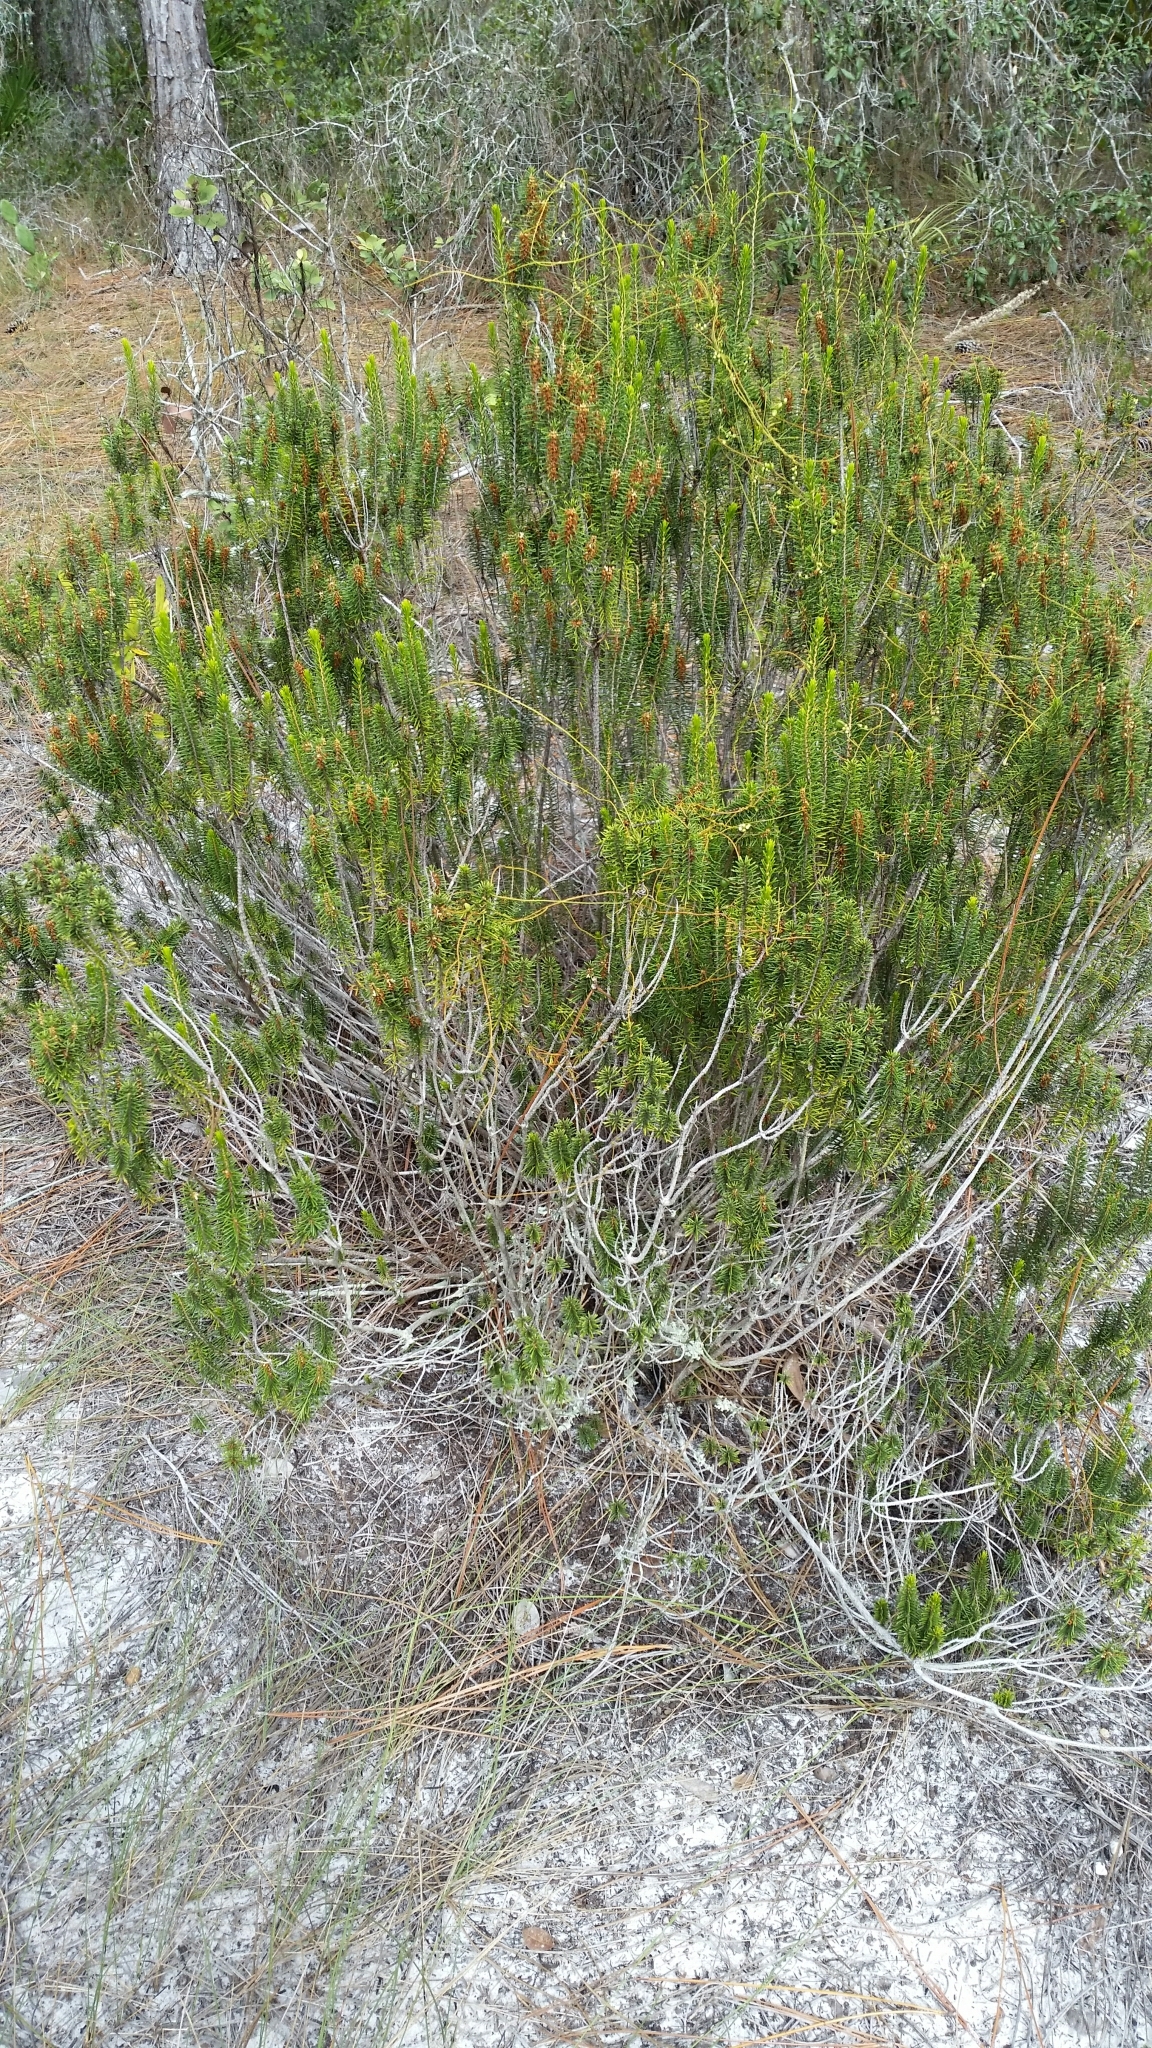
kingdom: Plantae
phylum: Tracheophyta
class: Magnoliopsida
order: Ericales
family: Ericaceae
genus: Ceratiola
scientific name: Ceratiola ericoides
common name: Sandhill-rosemary
